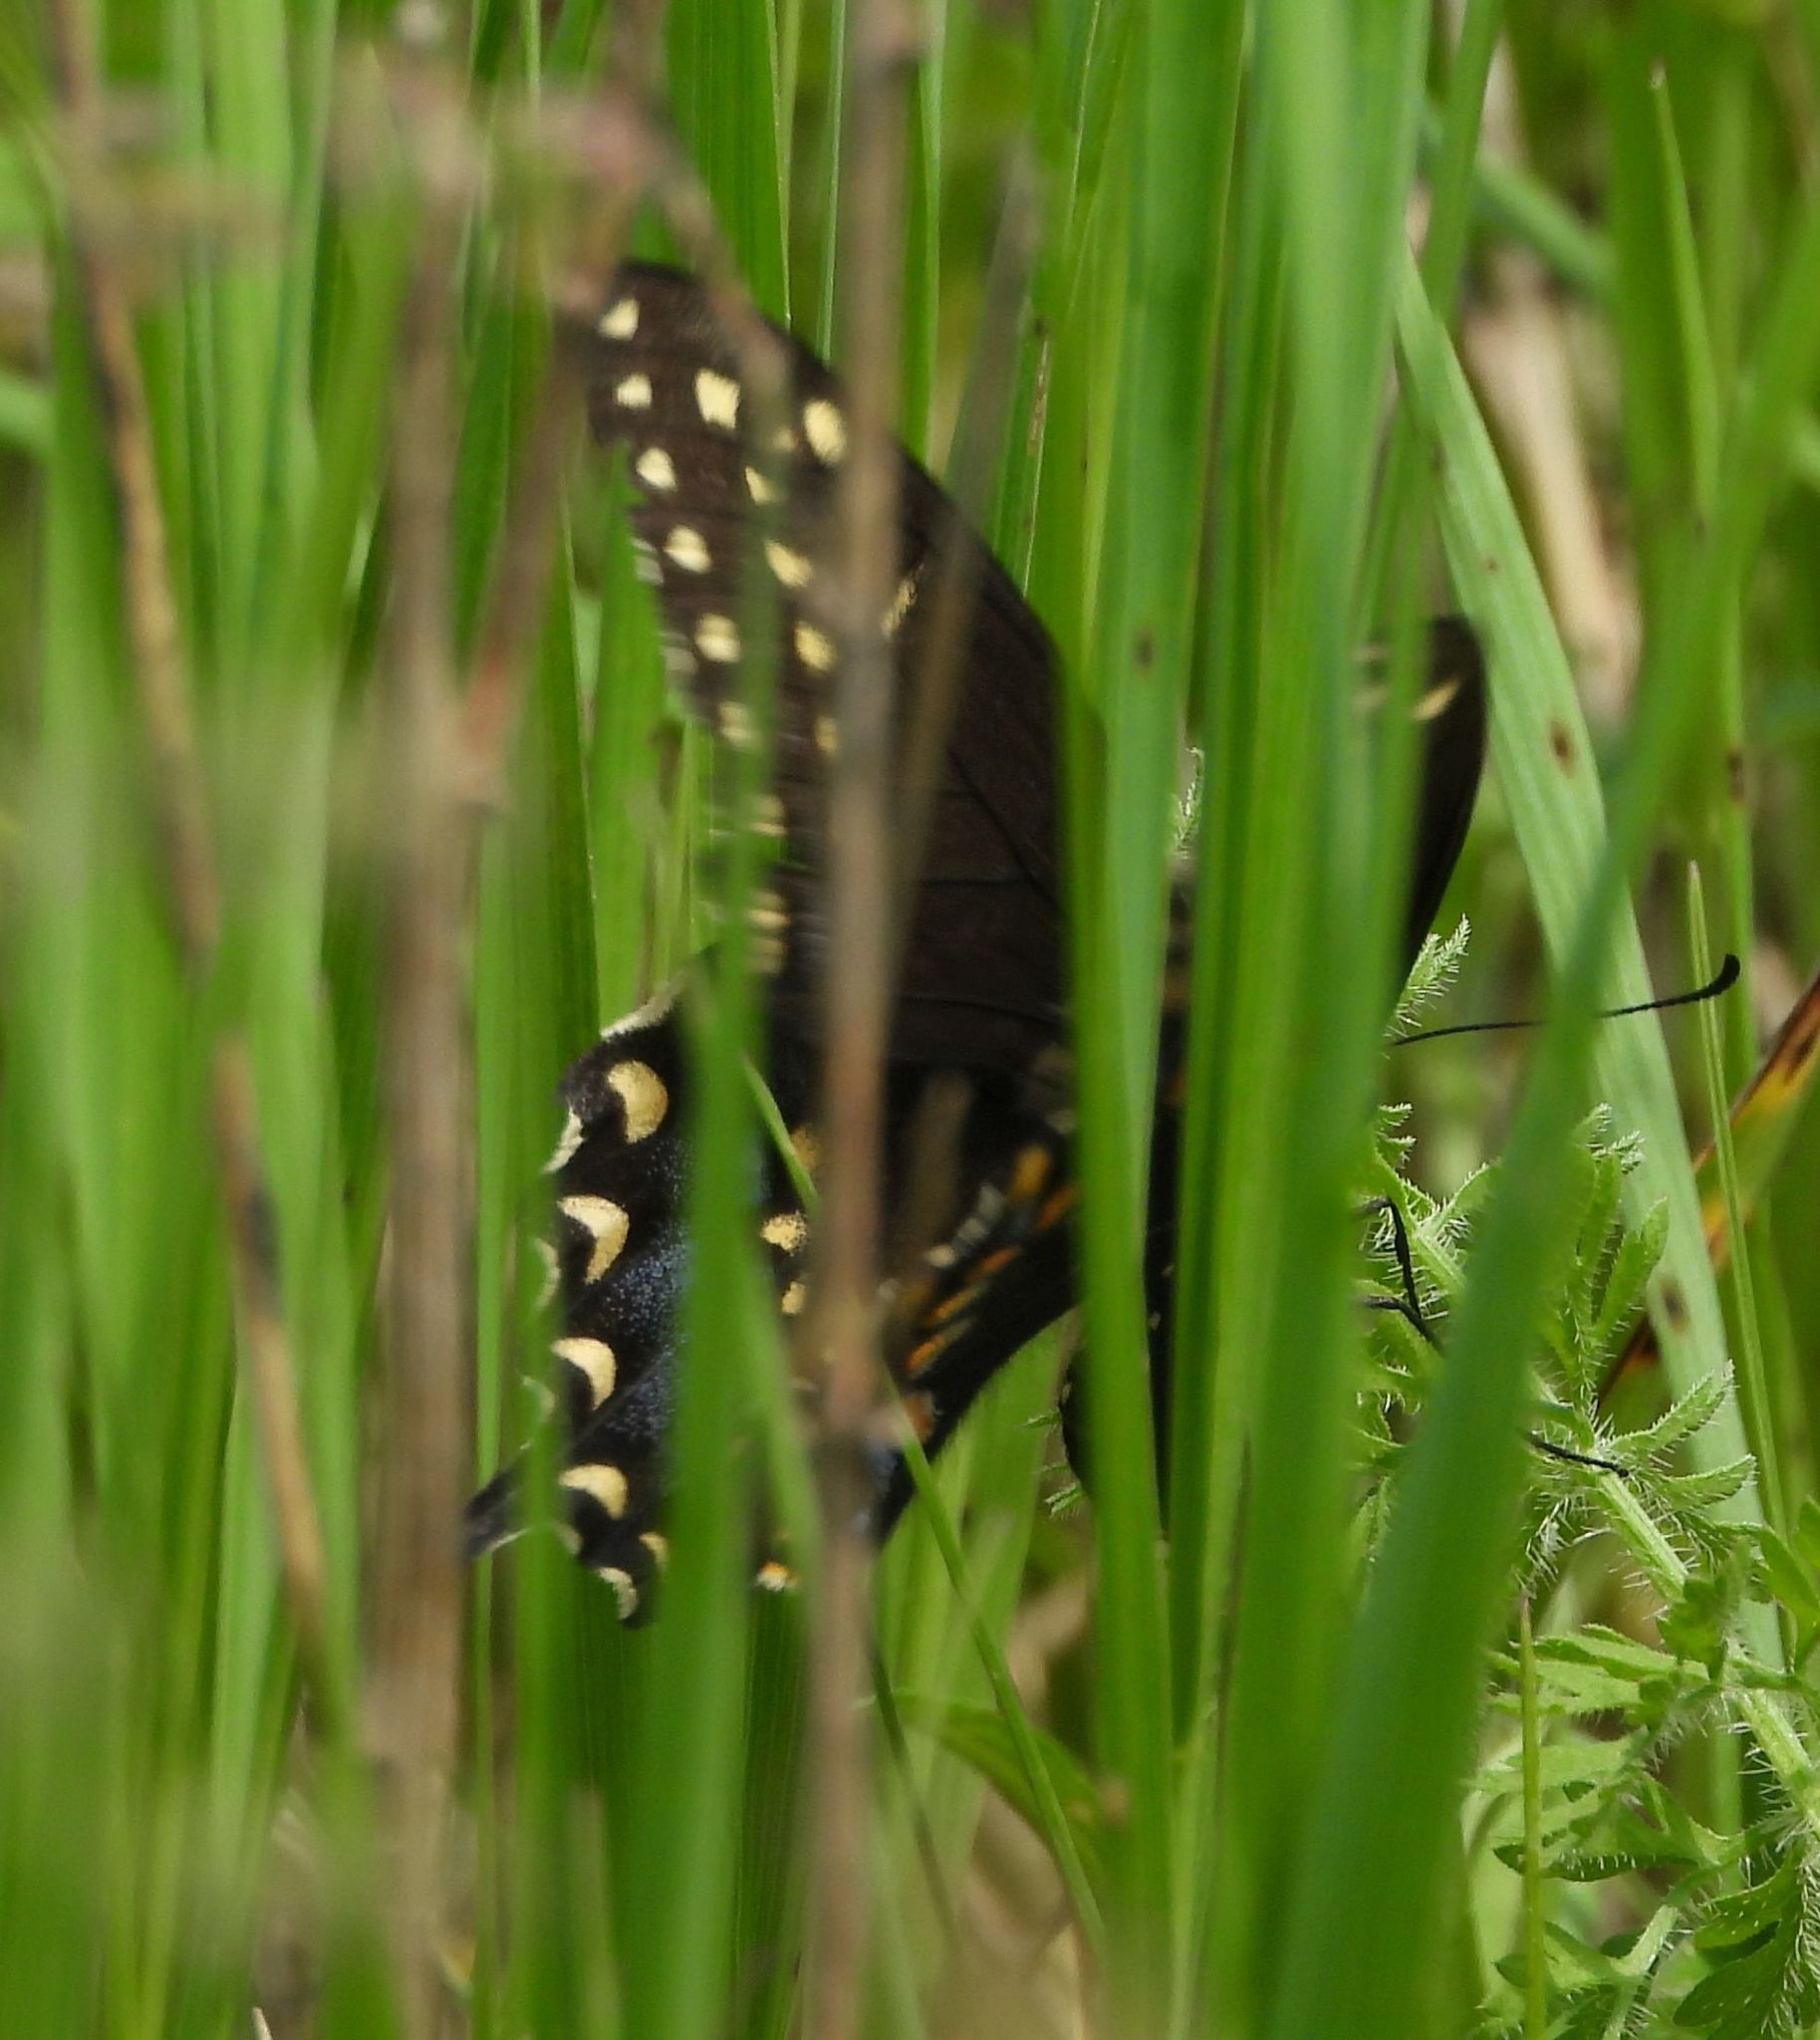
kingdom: Animalia
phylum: Arthropoda
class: Insecta
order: Lepidoptera
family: Papilionidae
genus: Papilio
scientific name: Papilio polyxenes
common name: Black swallowtail
